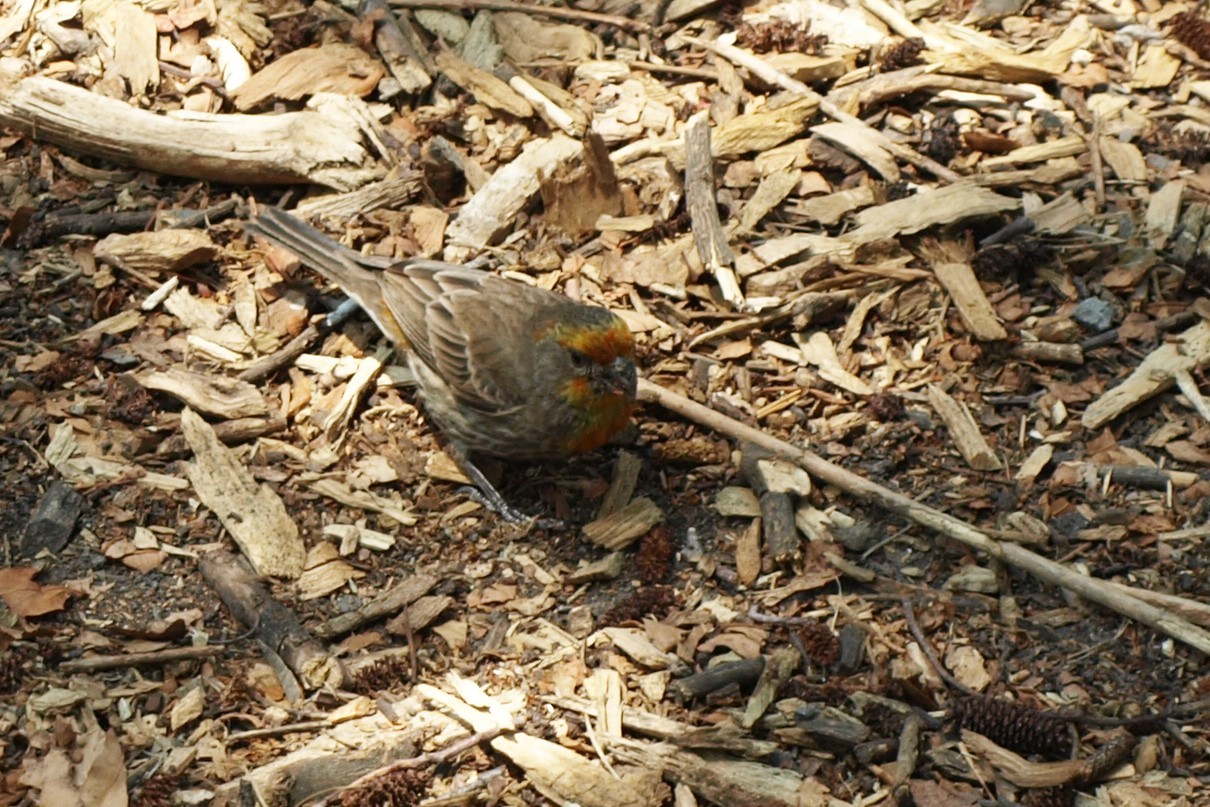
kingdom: Animalia
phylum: Chordata
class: Aves
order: Passeriformes
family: Fringillidae
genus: Haemorhous
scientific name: Haemorhous mexicanus
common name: House finch
